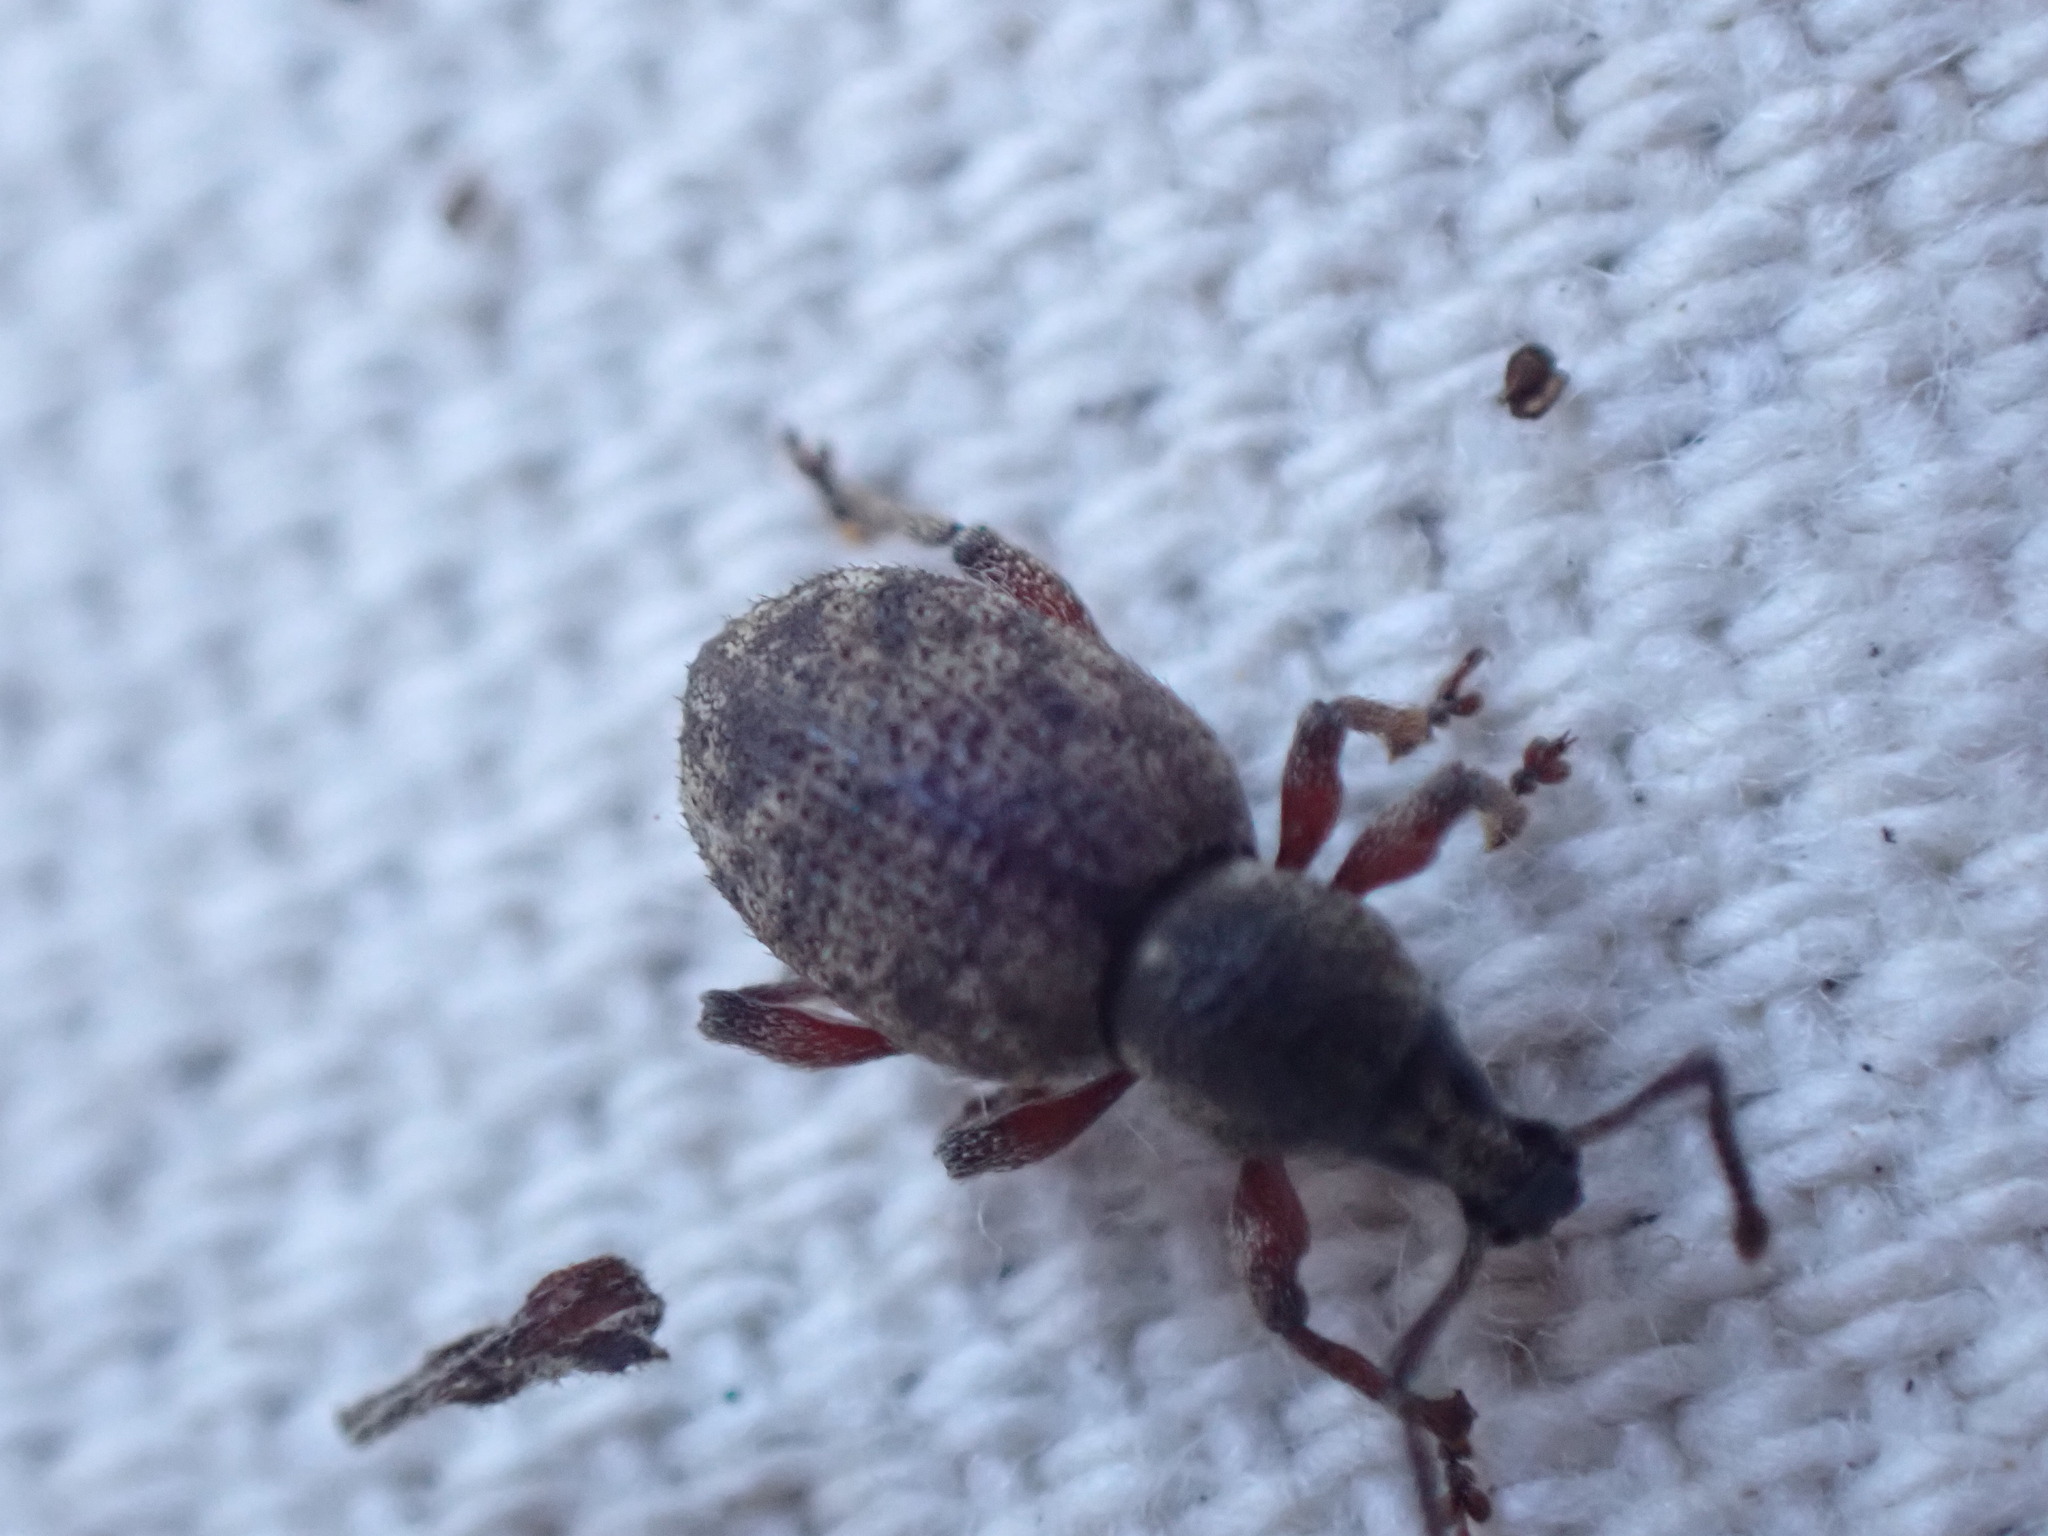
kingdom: Animalia
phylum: Arthropoda
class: Insecta
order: Coleoptera
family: Curculionidae
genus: Otiorhynchus
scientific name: Otiorhynchus singularis
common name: Clay-coloured weevil
